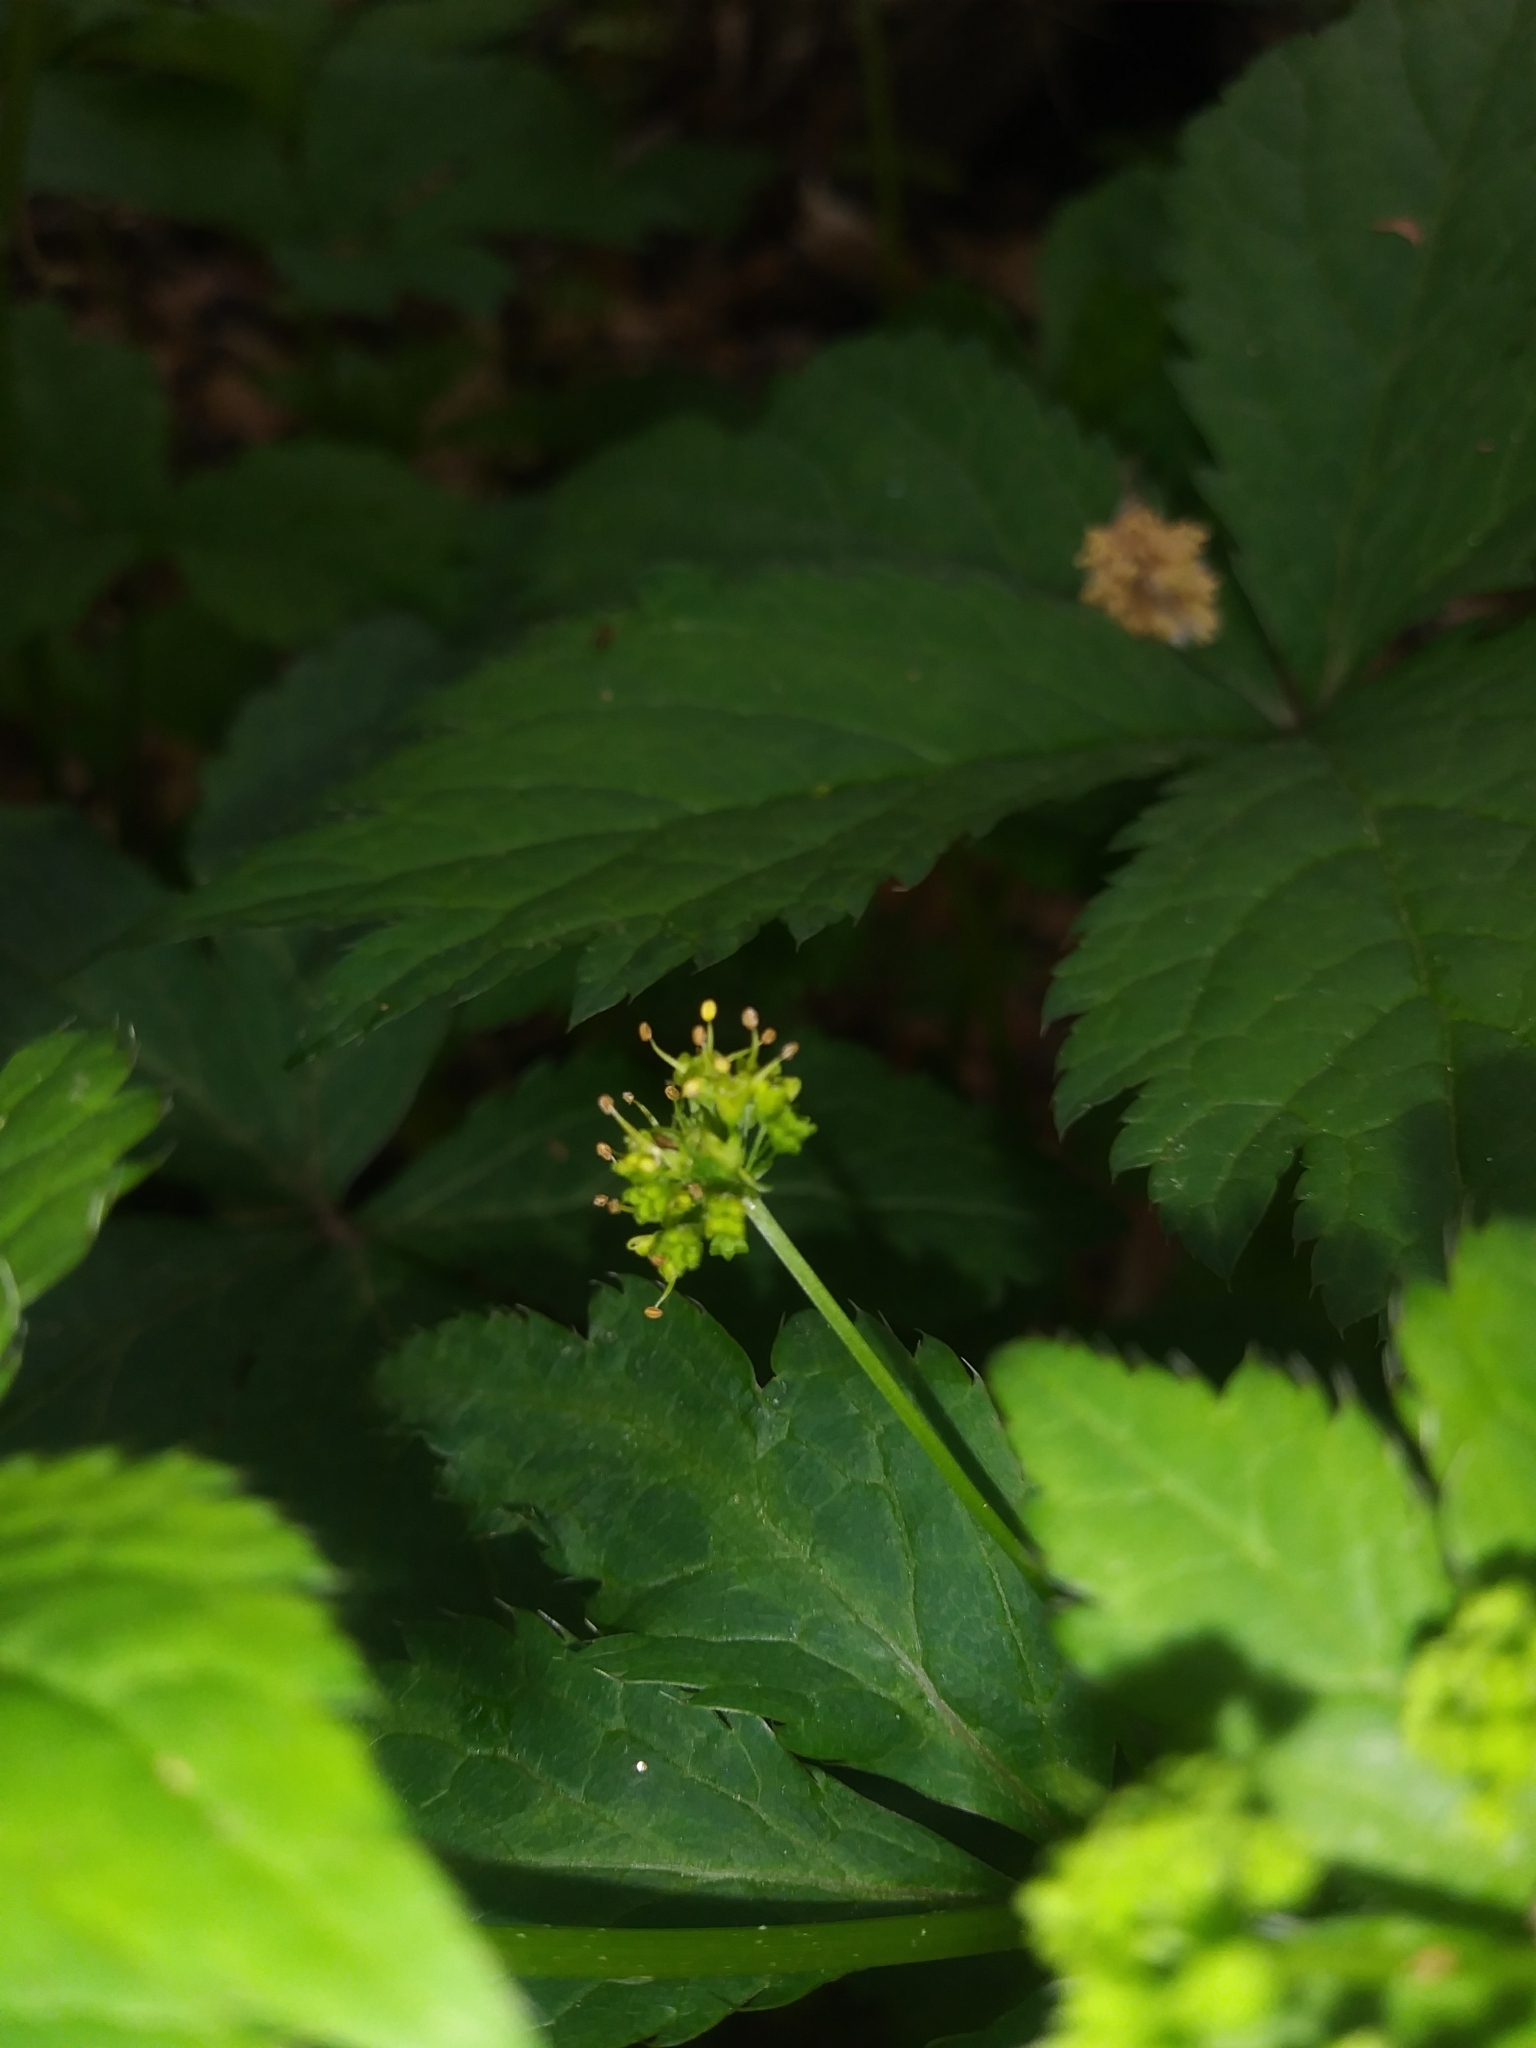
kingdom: Plantae
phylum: Tracheophyta
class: Magnoliopsida
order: Apiales
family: Apiaceae
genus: Sanicula
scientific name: Sanicula odorata
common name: Cluster sanicle
